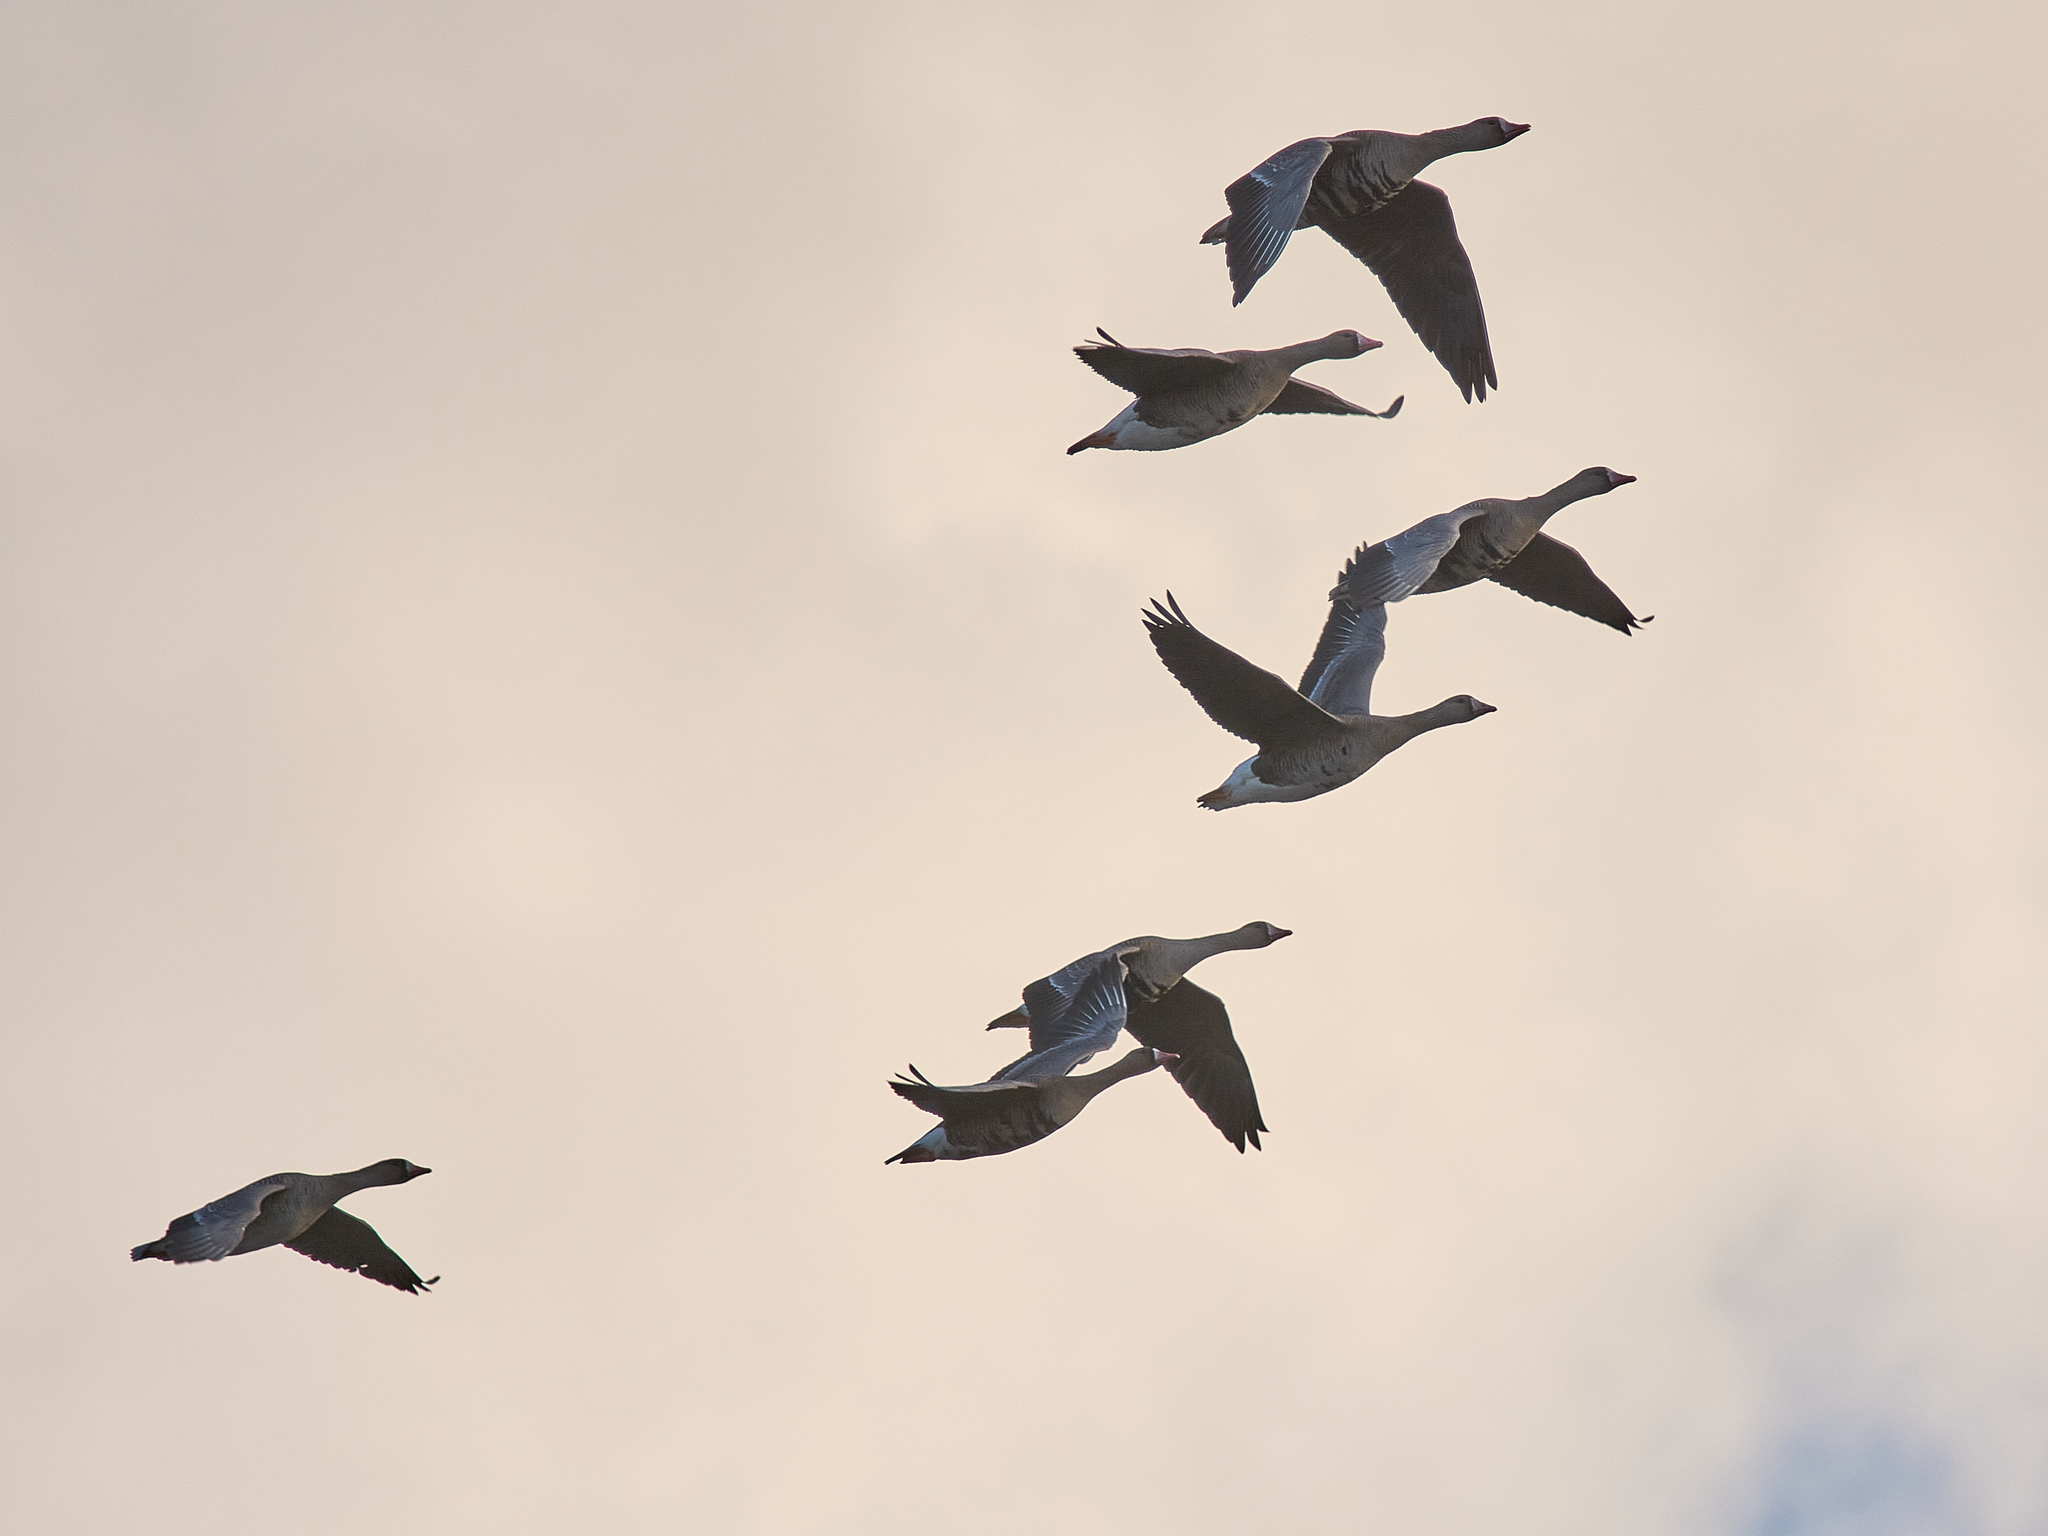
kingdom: Animalia
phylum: Chordata
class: Aves
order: Anseriformes
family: Anatidae
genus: Anser
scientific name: Anser albifrons
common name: Greater white-fronted goose
